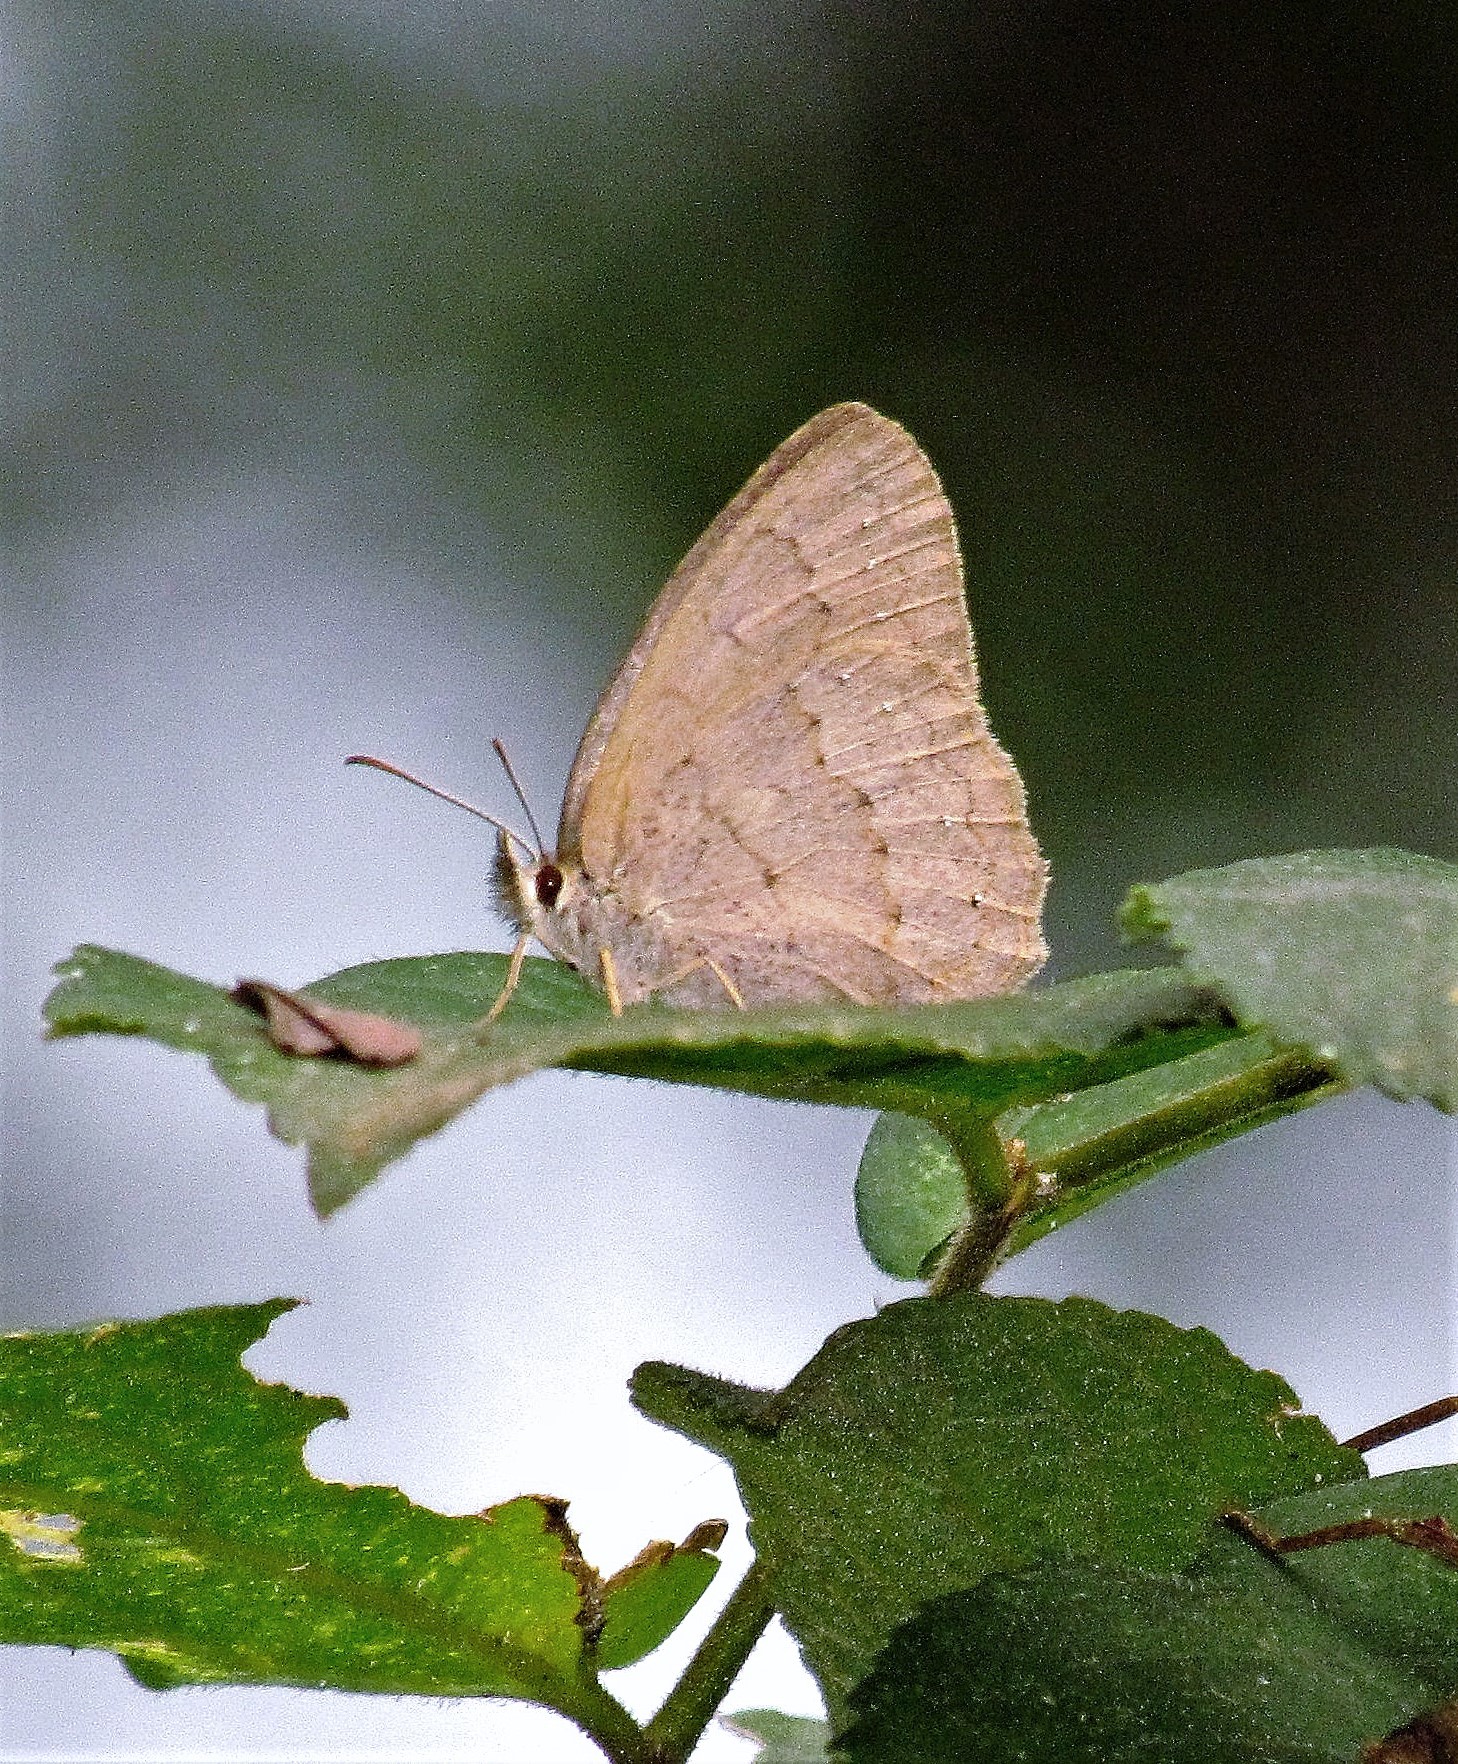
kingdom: Animalia
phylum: Arthropoda
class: Insecta
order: Lepidoptera
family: Nymphalidae
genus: Euptychia
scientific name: Euptychia
